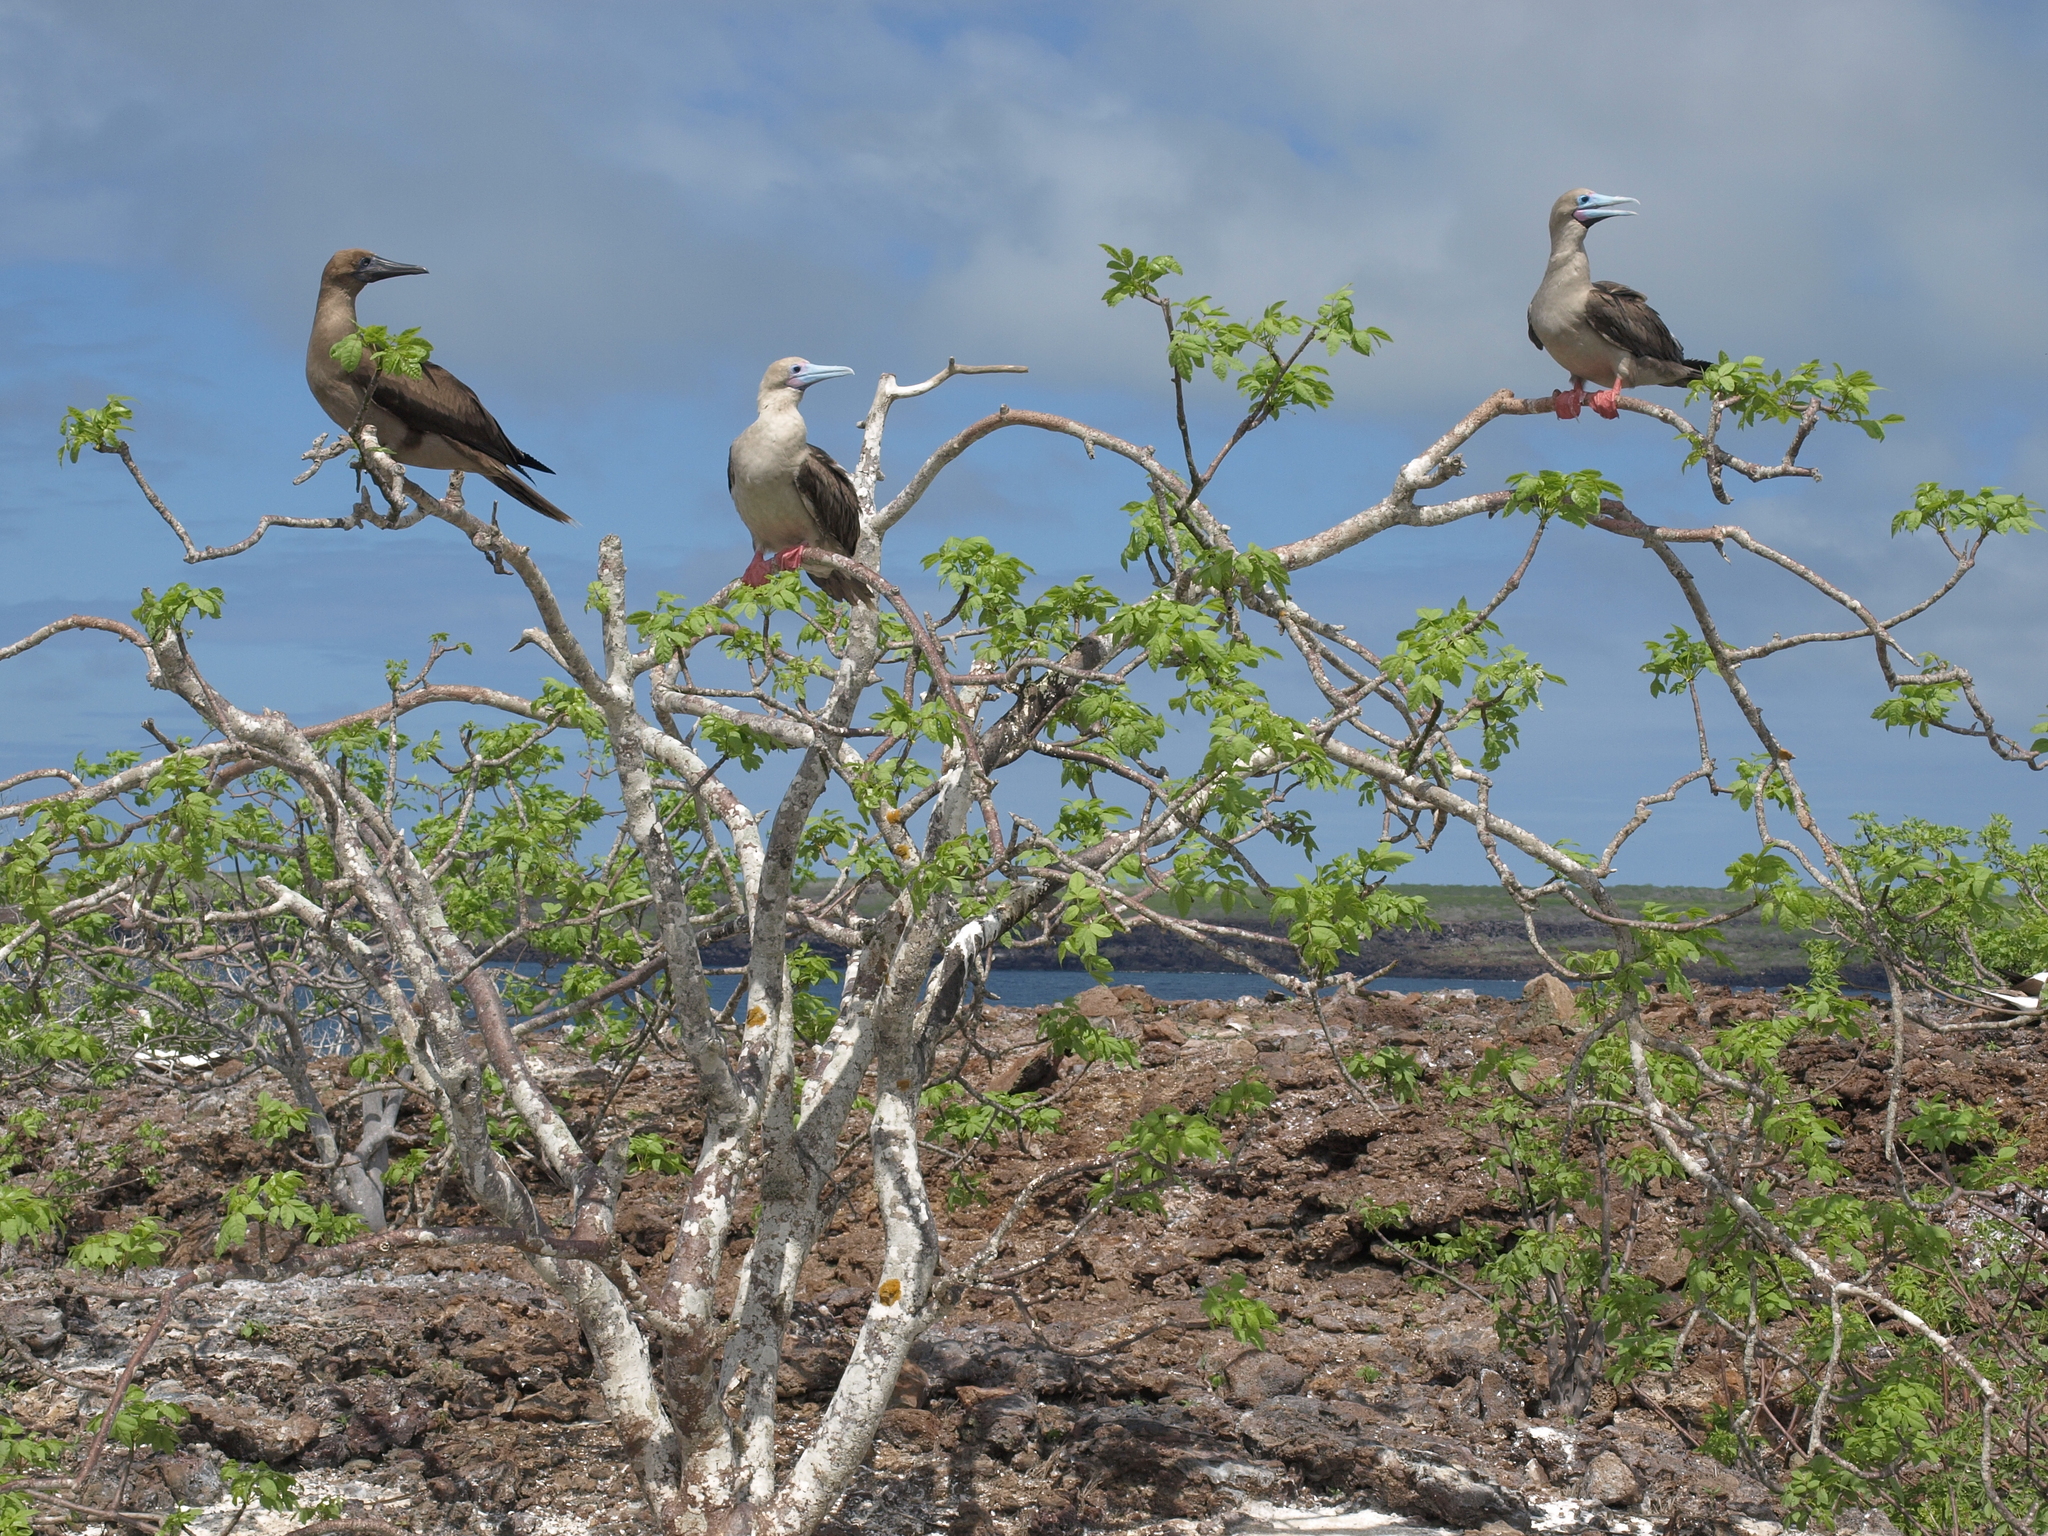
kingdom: Animalia
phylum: Chordata
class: Aves
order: Suliformes
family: Sulidae
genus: Sula
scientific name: Sula sula
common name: Red-footed booby
